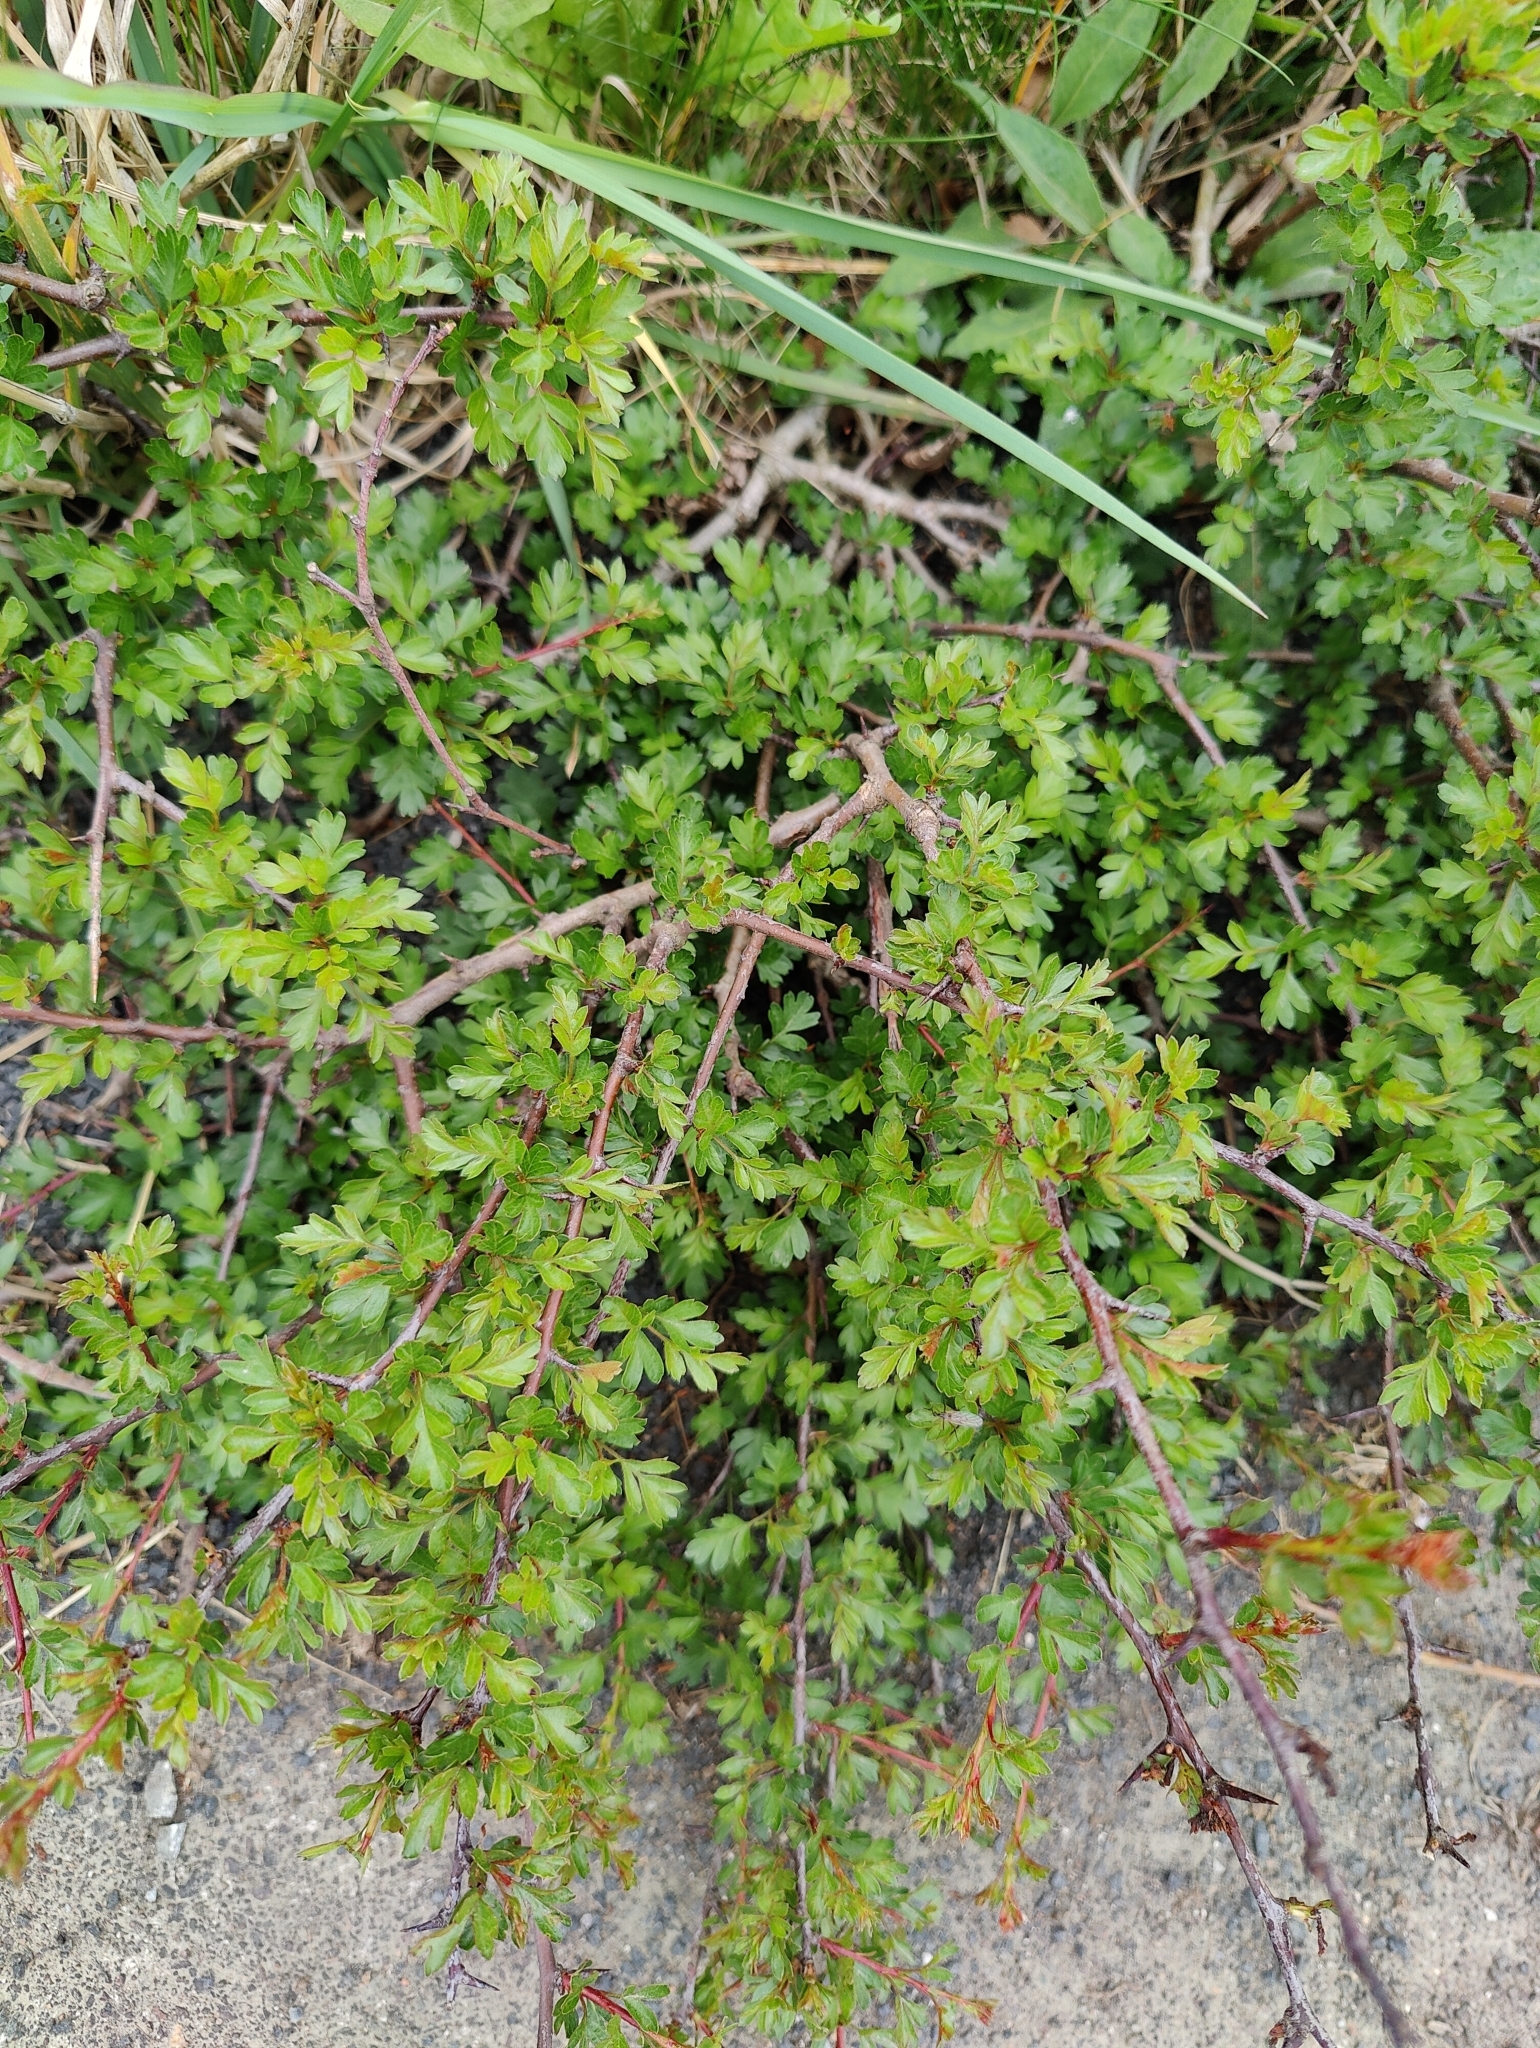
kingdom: Plantae
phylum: Tracheophyta
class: Magnoliopsida
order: Rosales
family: Rosaceae
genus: Crataegus
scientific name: Crataegus monogyna
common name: Hawthorn
